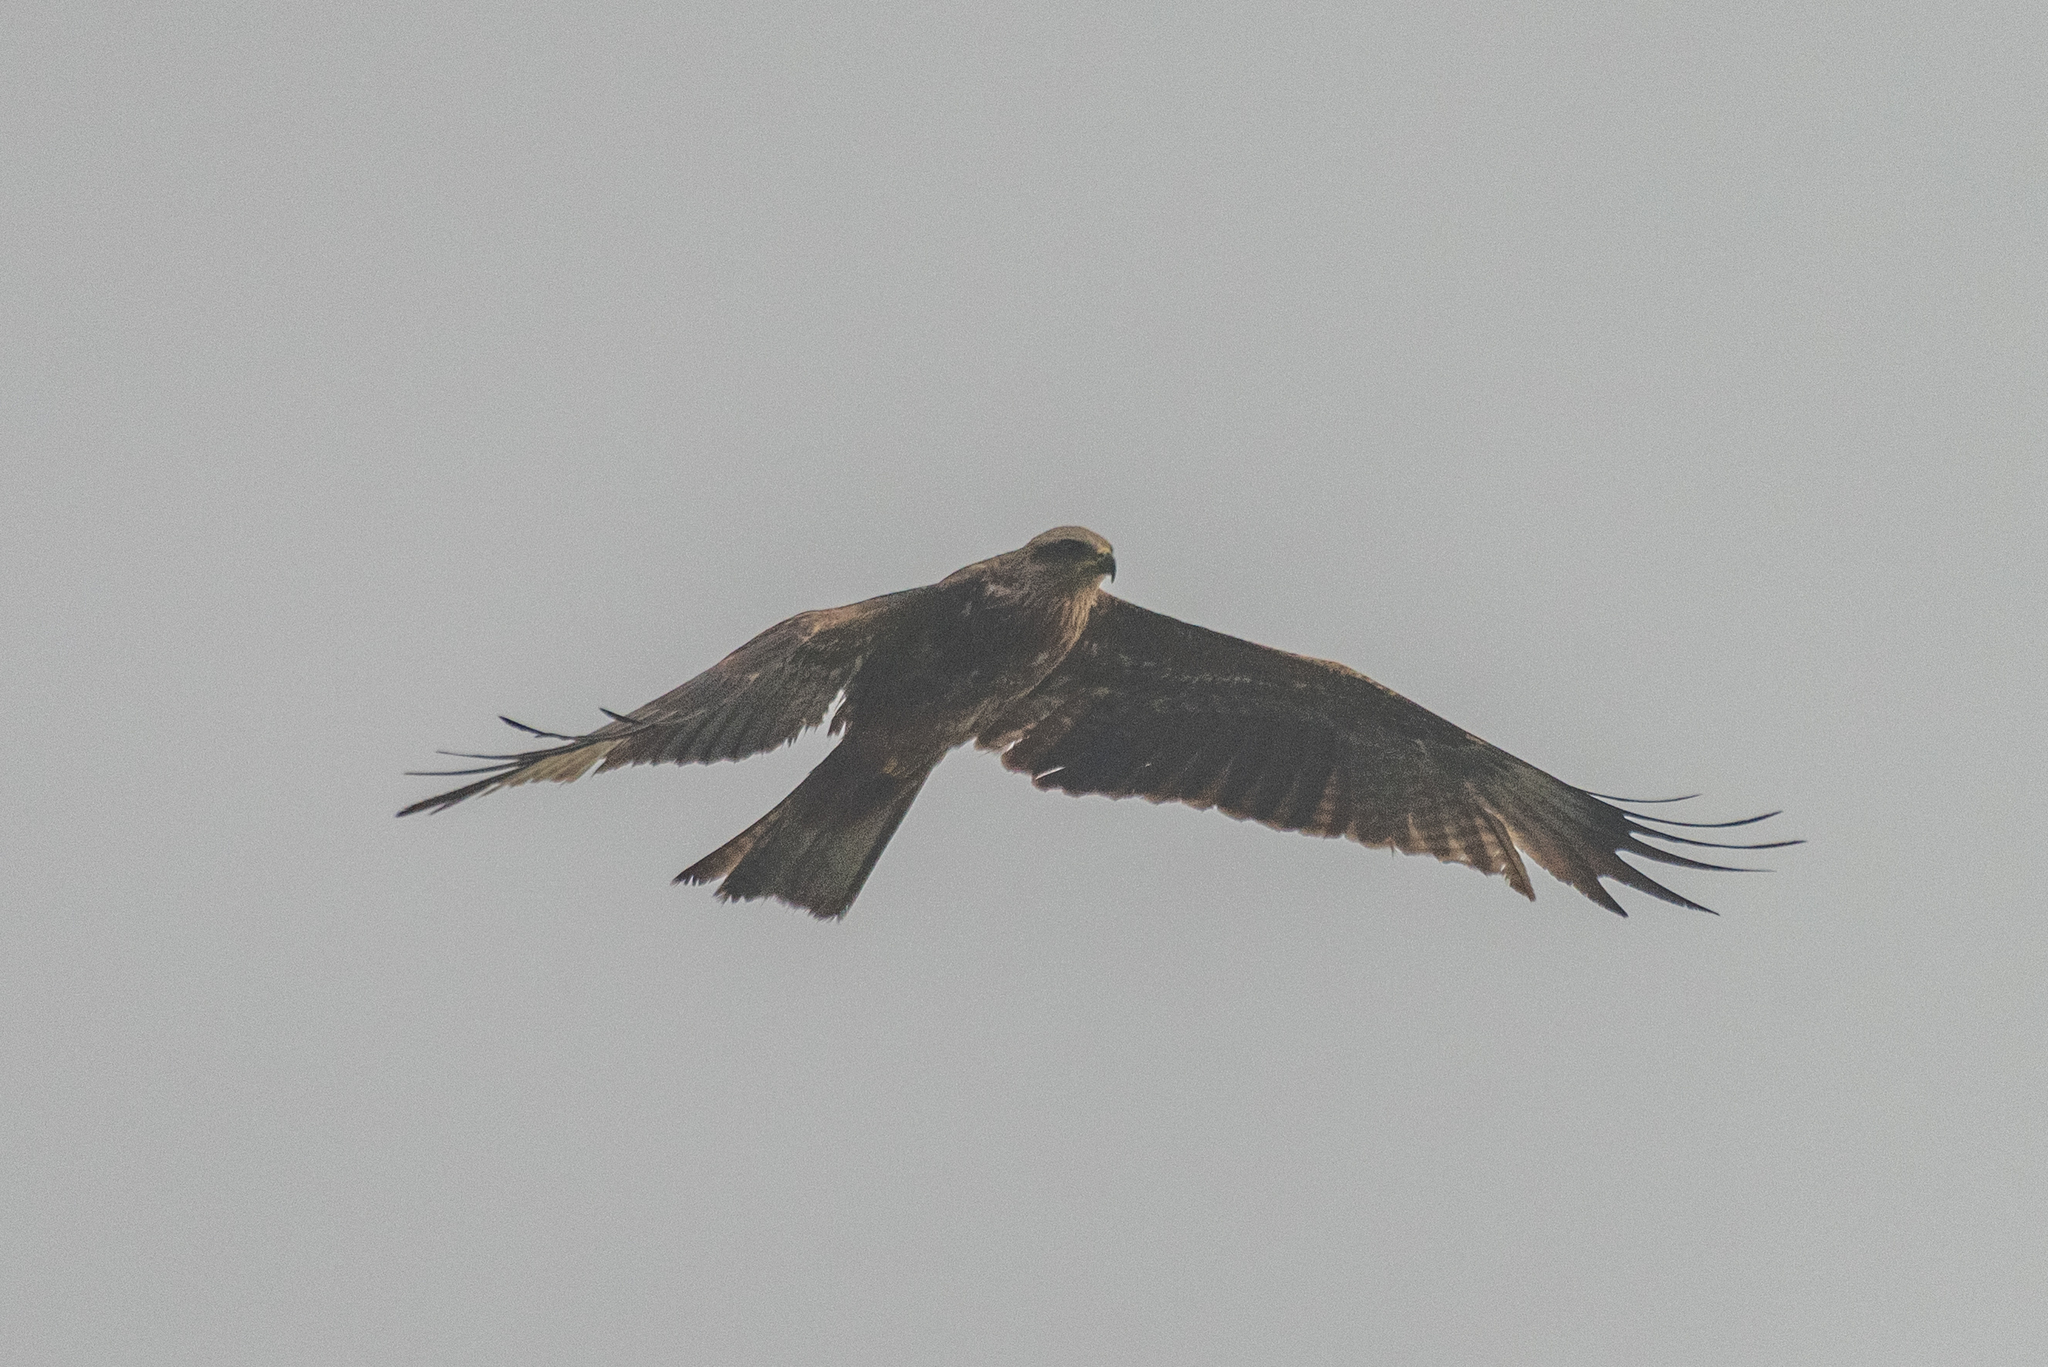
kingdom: Animalia
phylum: Chordata
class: Aves
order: Accipitriformes
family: Accipitridae
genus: Milvus
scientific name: Milvus migrans
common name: Black kite
